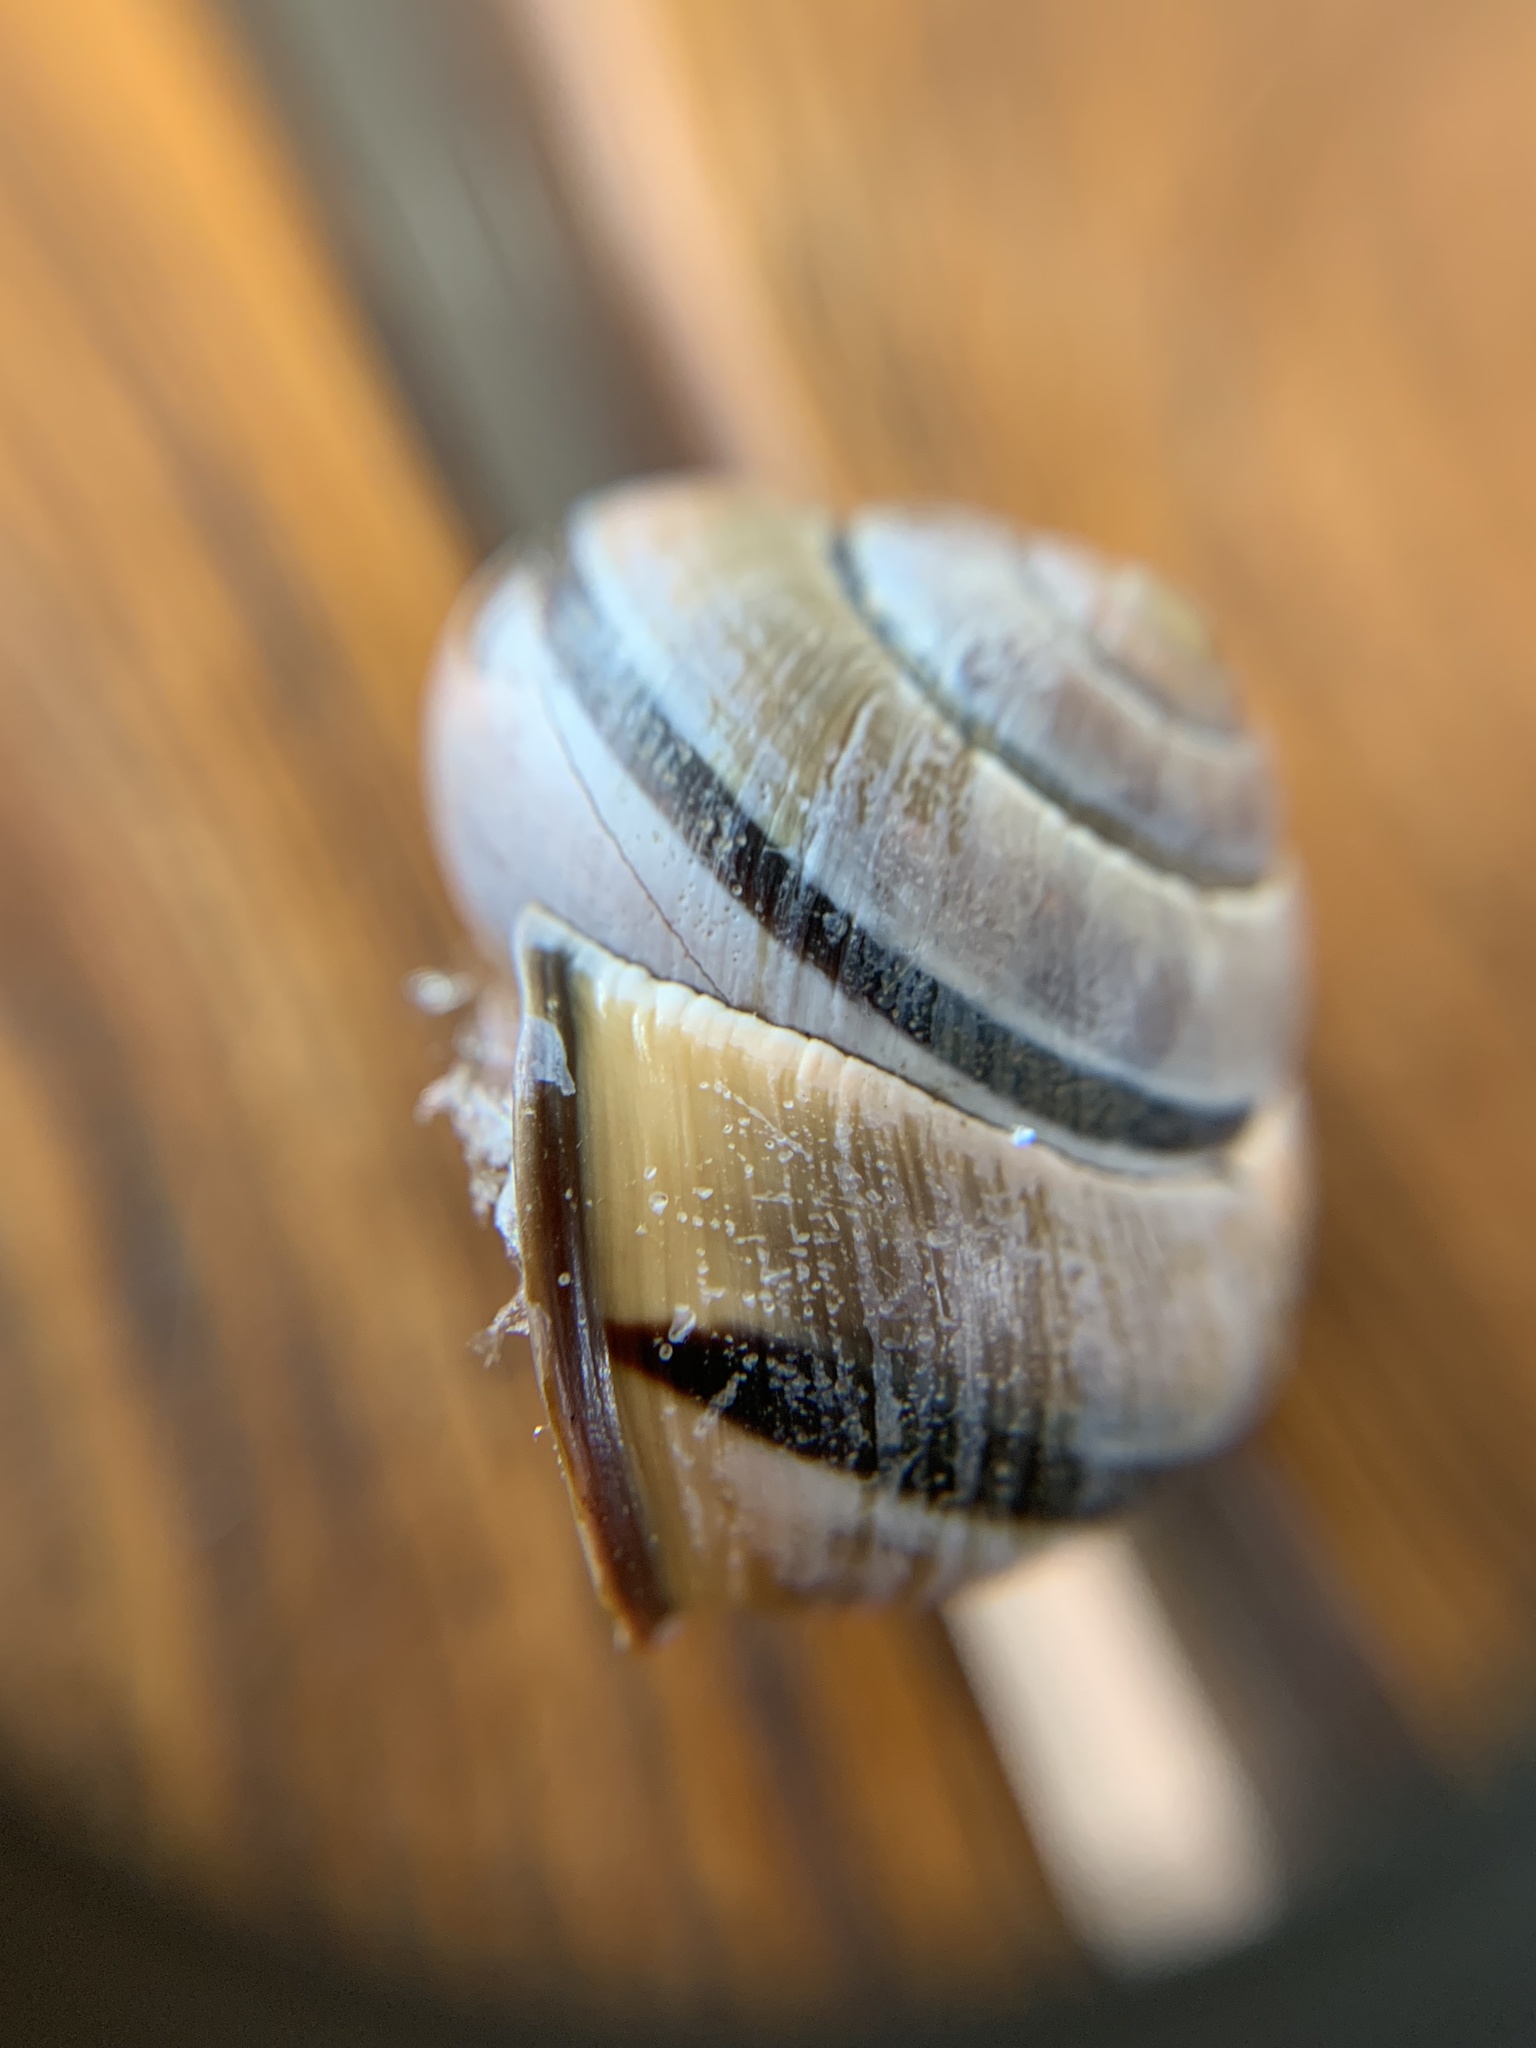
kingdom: Animalia
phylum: Mollusca
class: Gastropoda
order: Stylommatophora
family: Helicidae
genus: Cepaea
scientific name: Cepaea nemoralis
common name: Grovesnail
